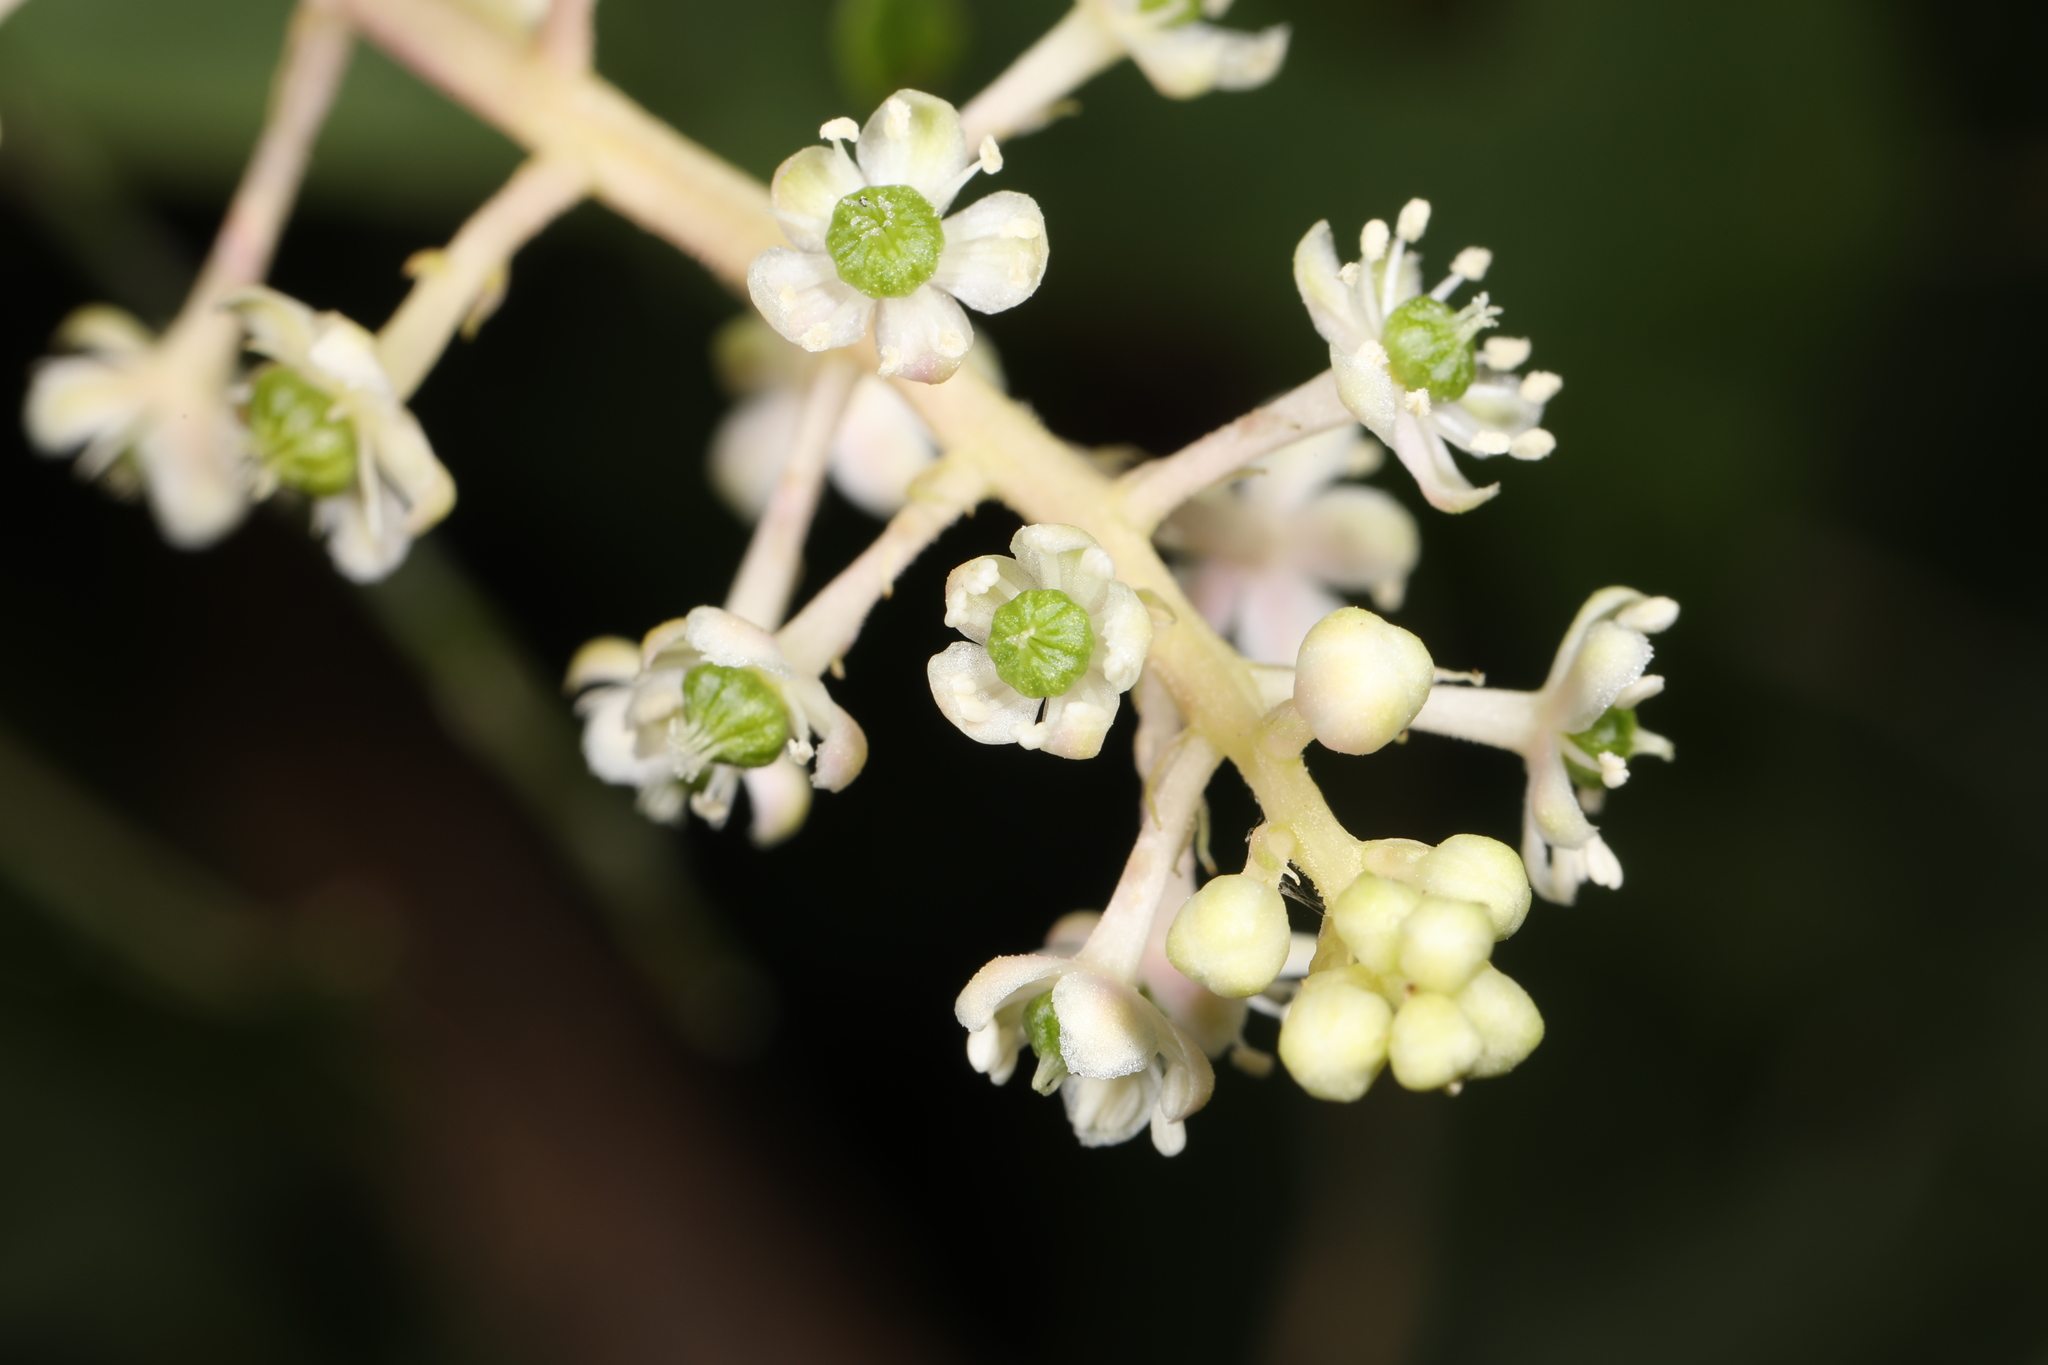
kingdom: Plantae
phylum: Tracheophyta
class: Magnoliopsida
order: Caryophyllales
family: Phytolaccaceae
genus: Phytolacca
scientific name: Phytolacca americana
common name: American pokeweed
